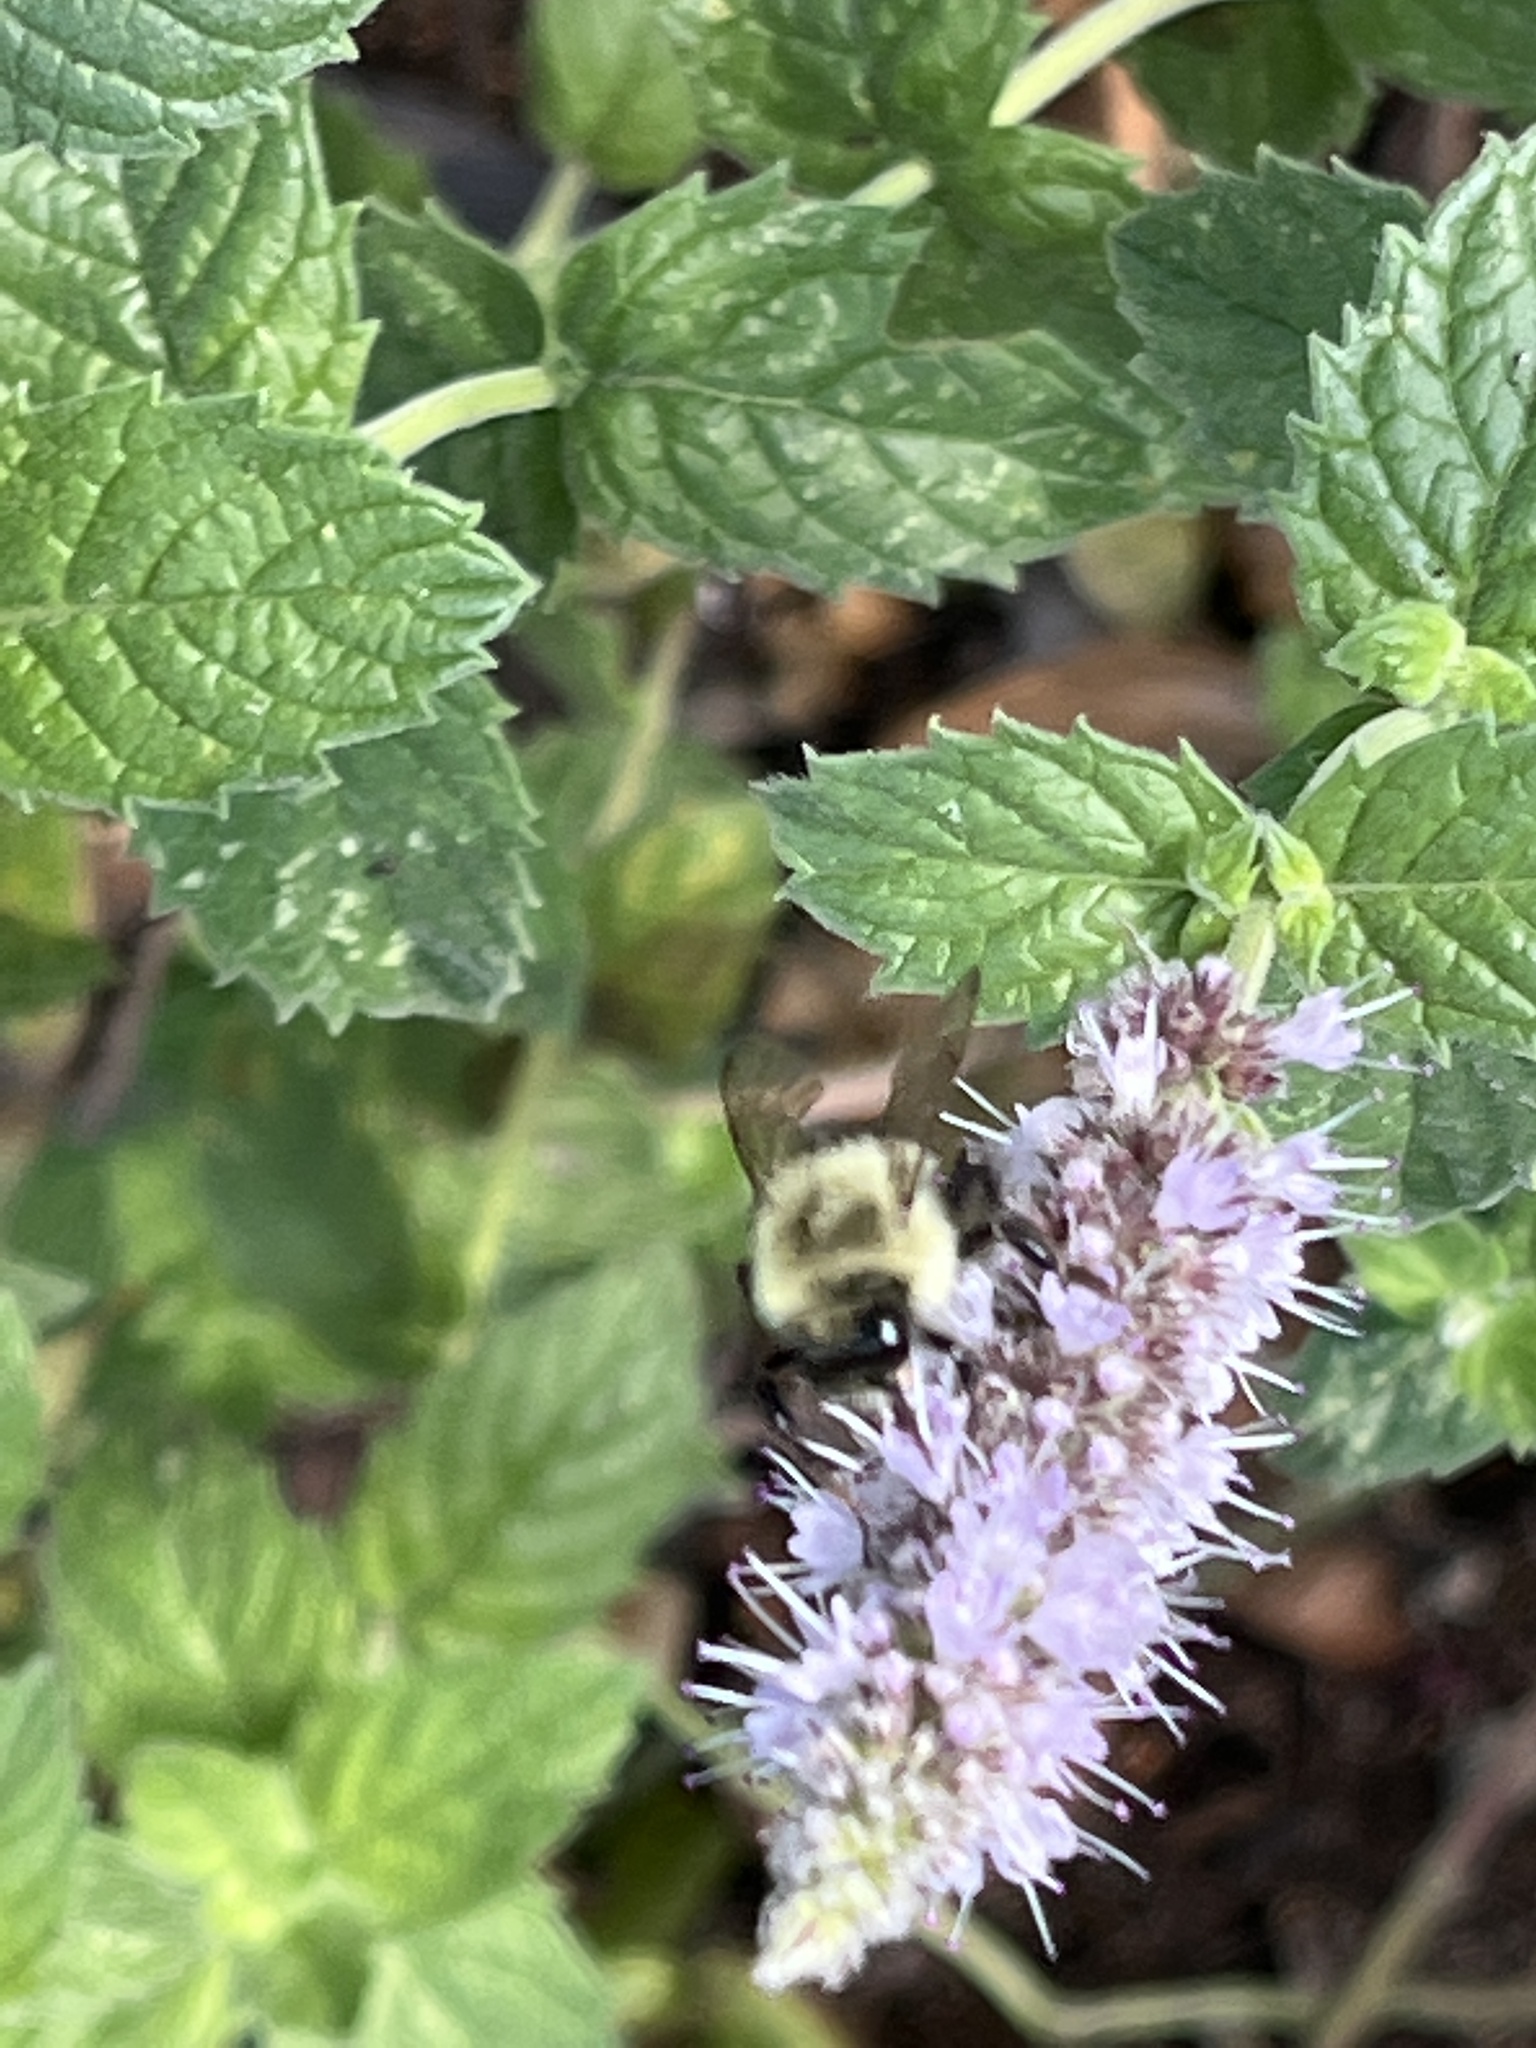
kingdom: Animalia
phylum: Arthropoda
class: Insecta
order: Hymenoptera
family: Apidae
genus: Bombus
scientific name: Bombus impatiens
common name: Common eastern bumble bee
